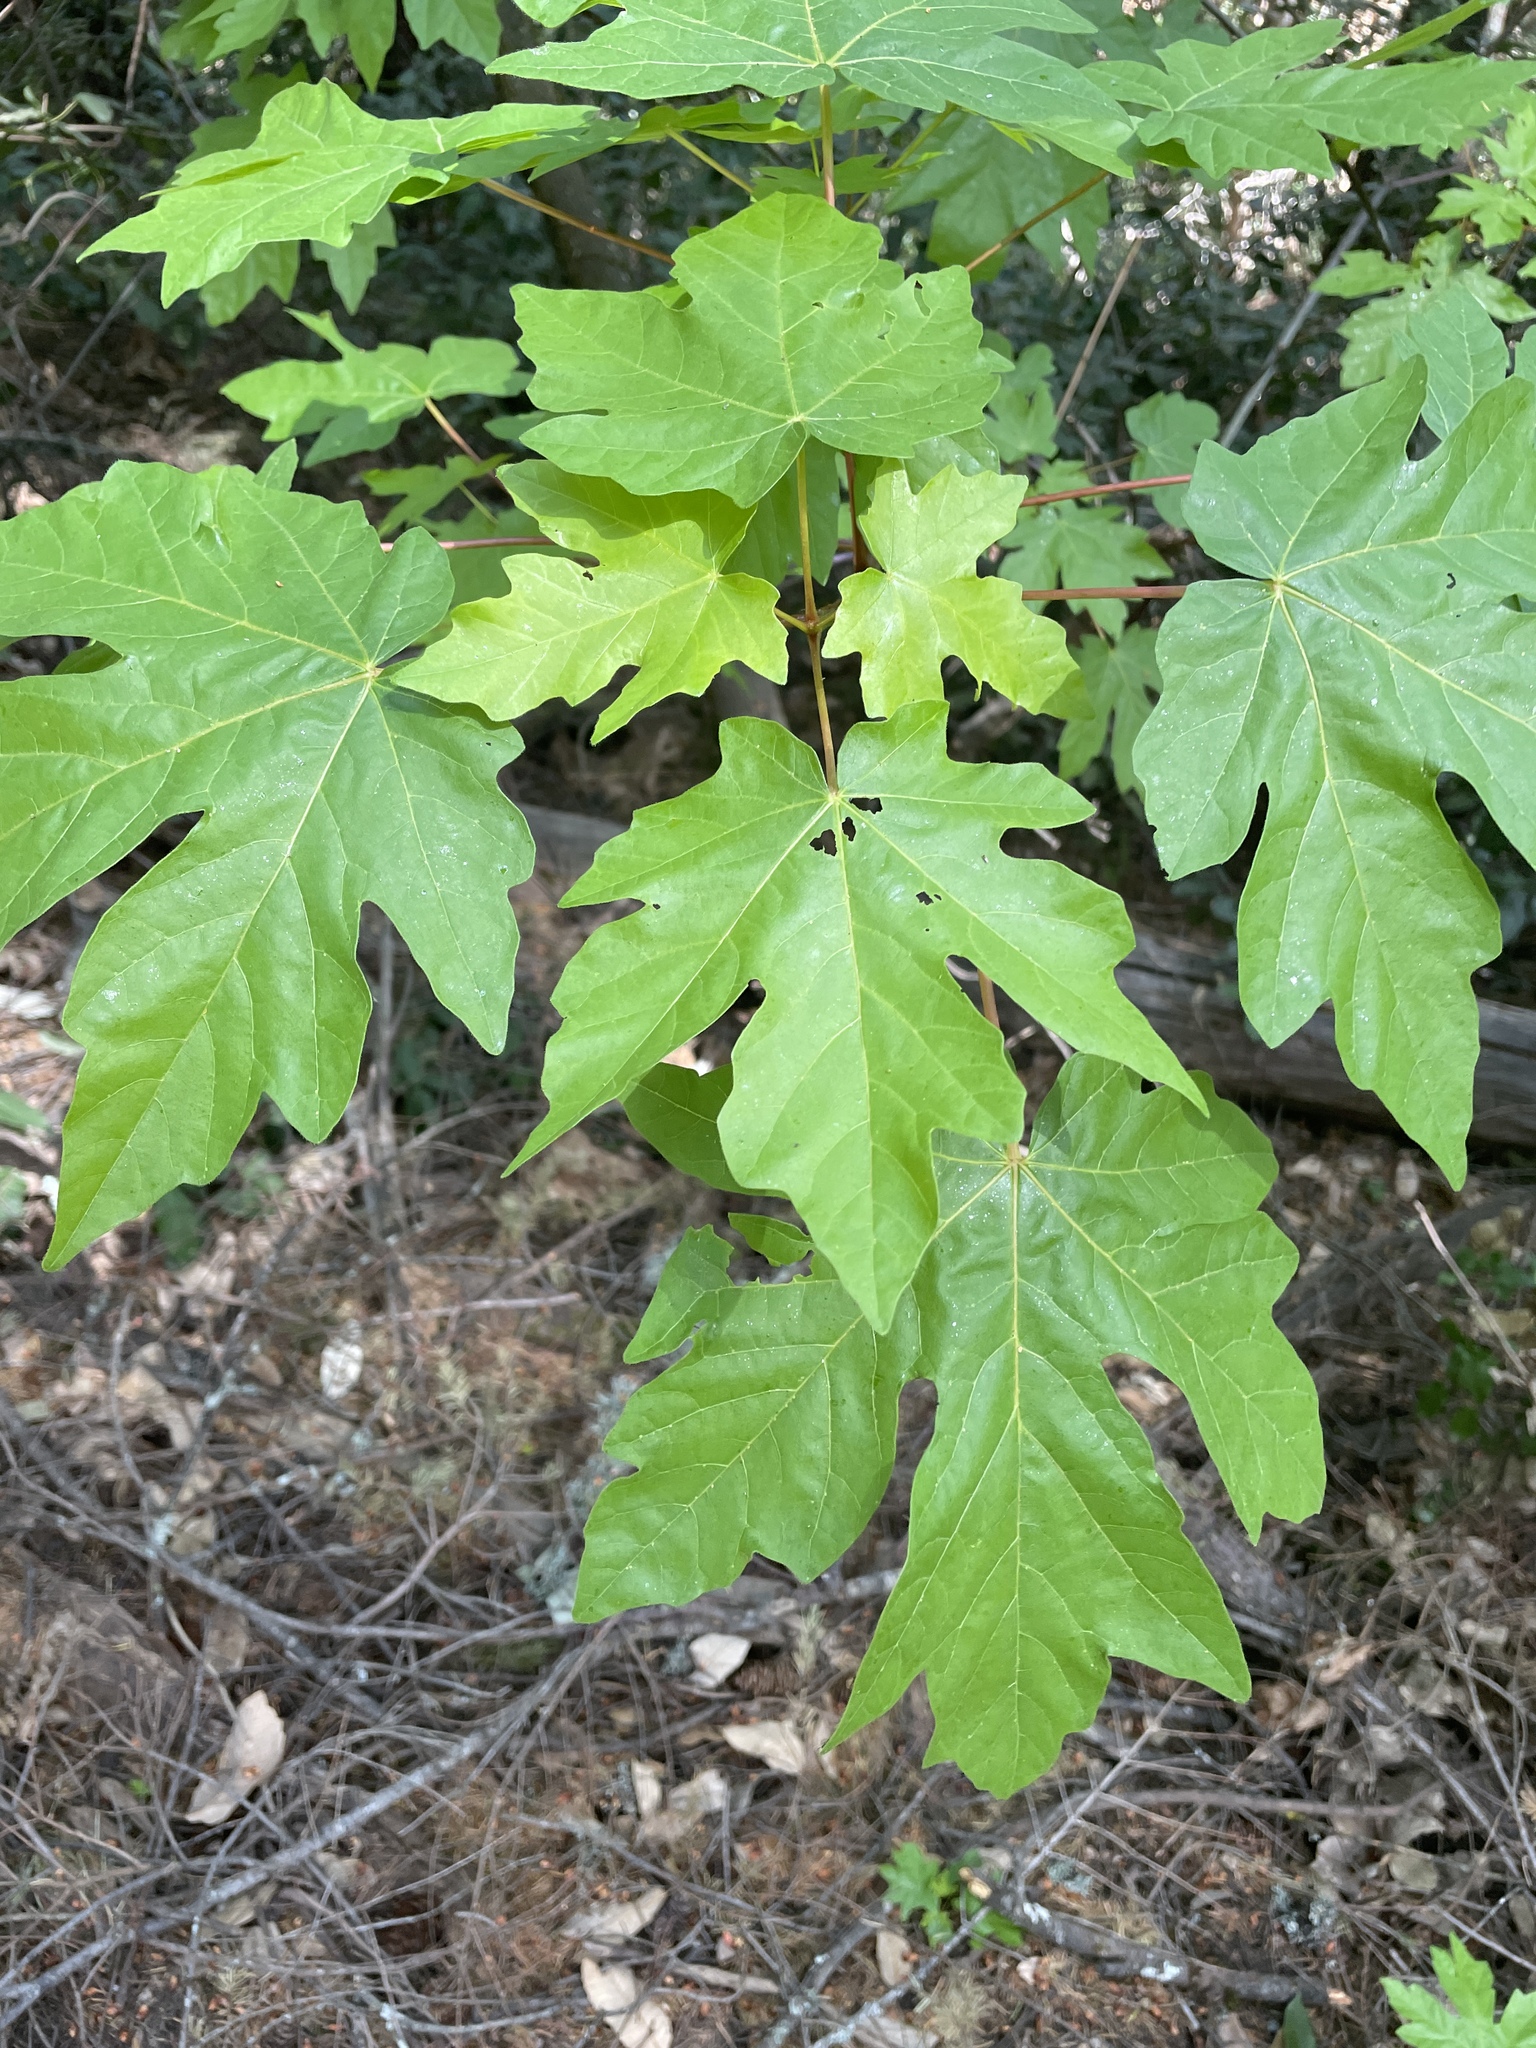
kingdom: Plantae
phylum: Tracheophyta
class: Magnoliopsida
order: Sapindales
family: Sapindaceae
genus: Acer
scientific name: Acer macrophyllum
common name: Oregon maple
